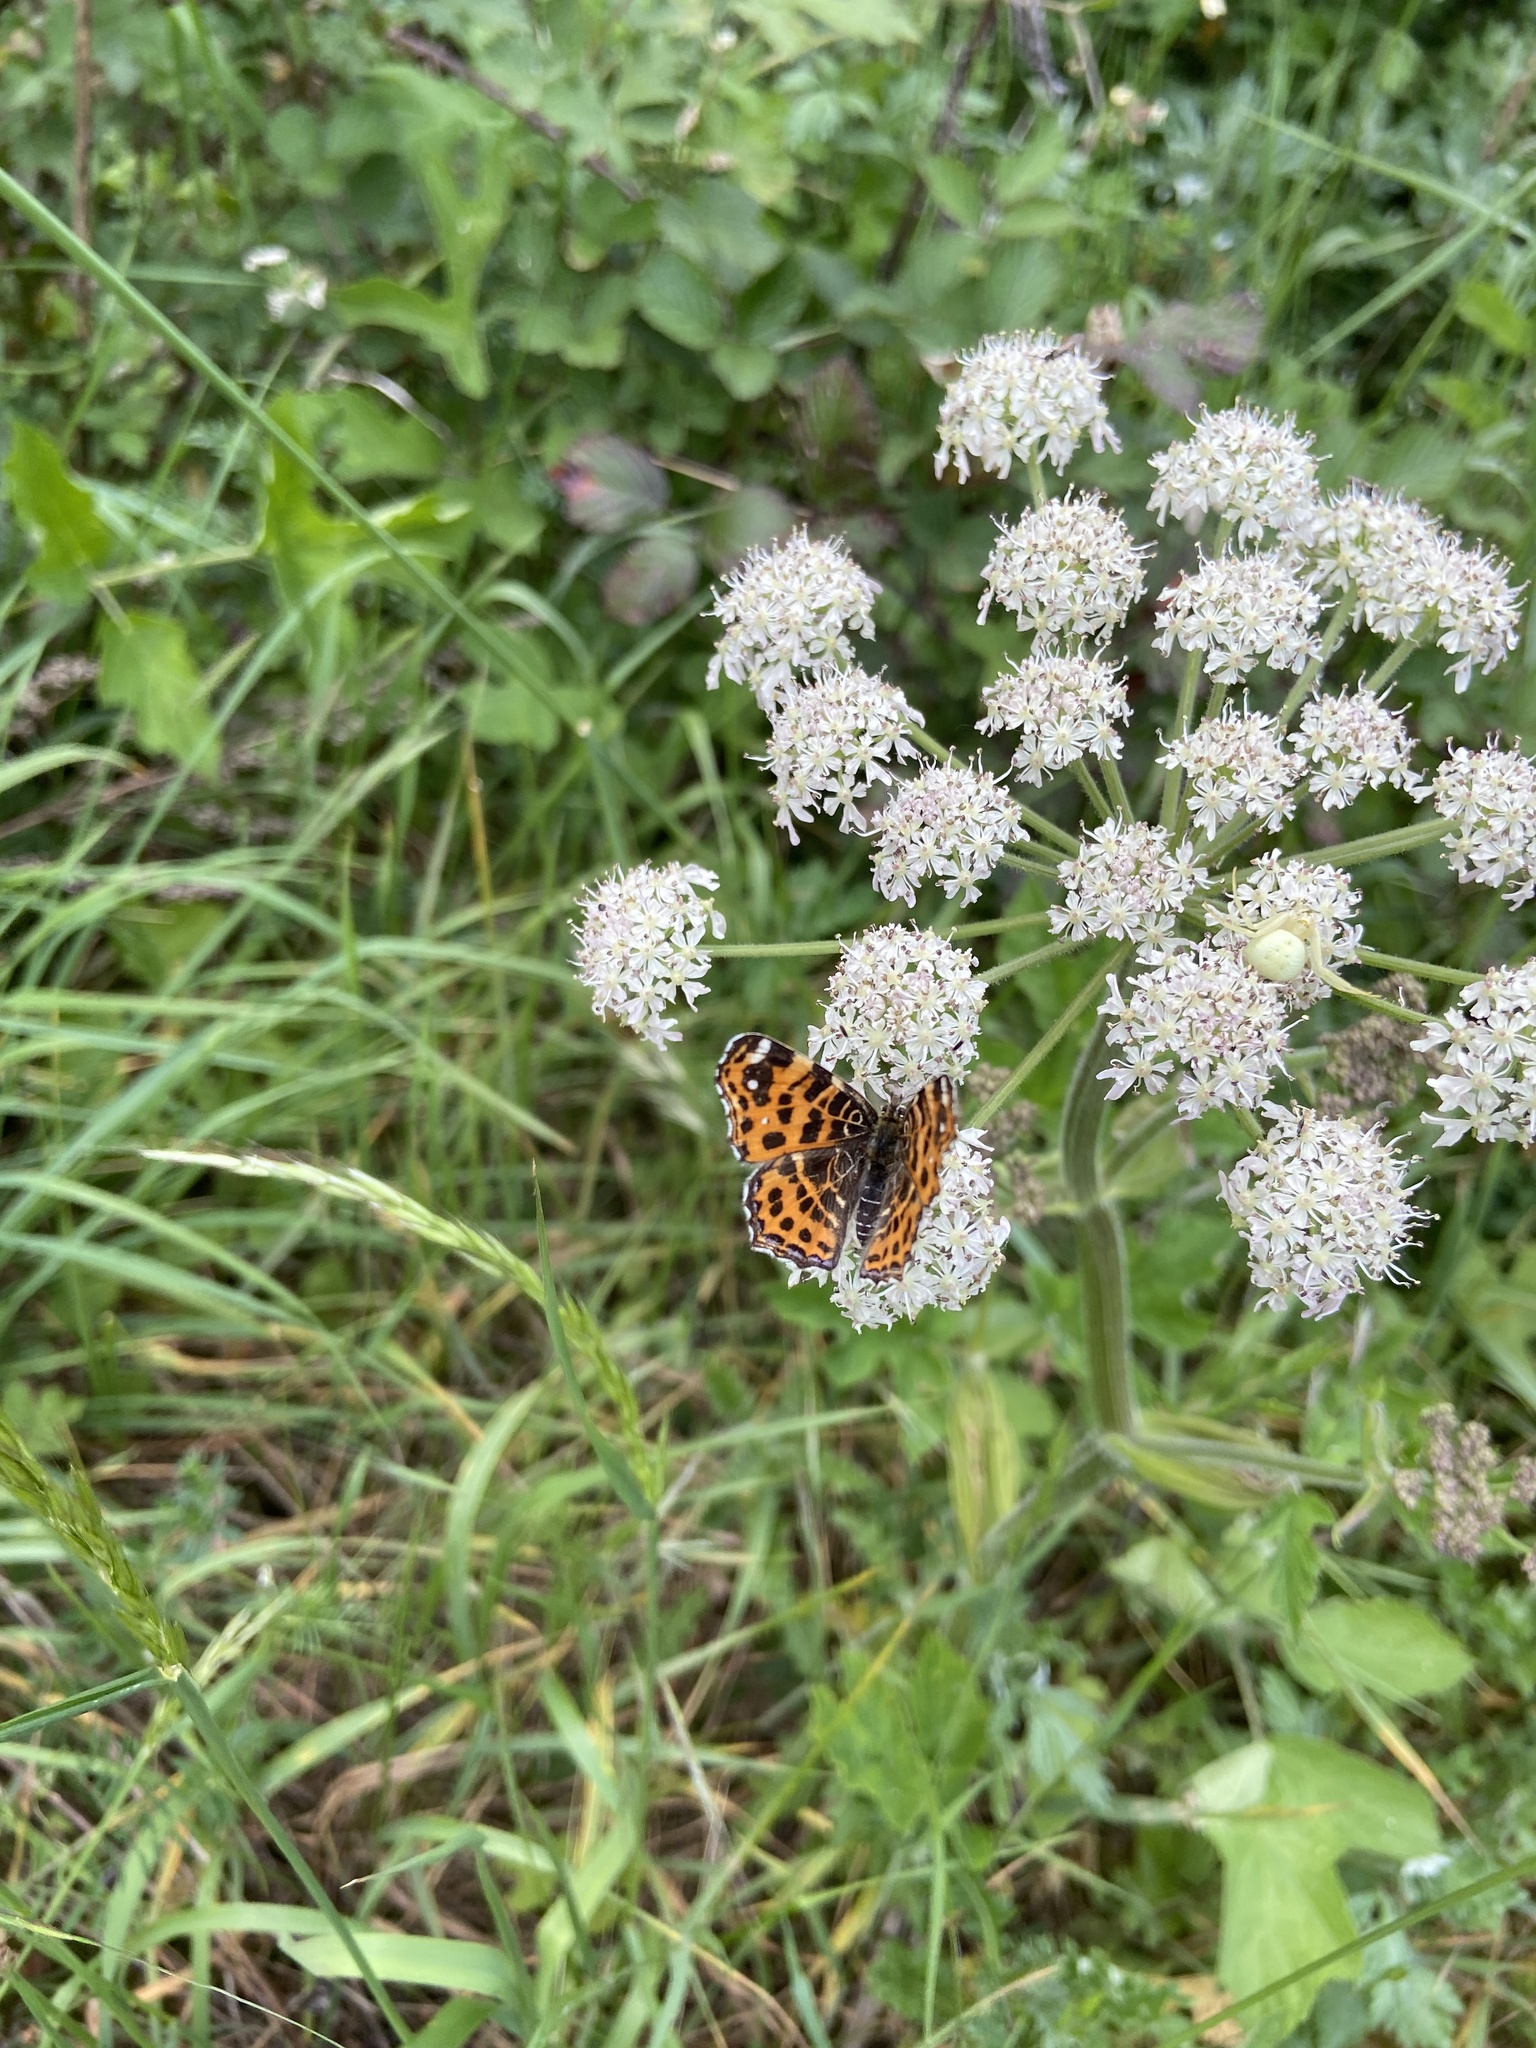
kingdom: Animalia
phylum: Arthropoda
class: Insecta
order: Lepidoptera
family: Nymphalidae
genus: Araschnia
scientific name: Araschnia levana
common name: Map butterfly
